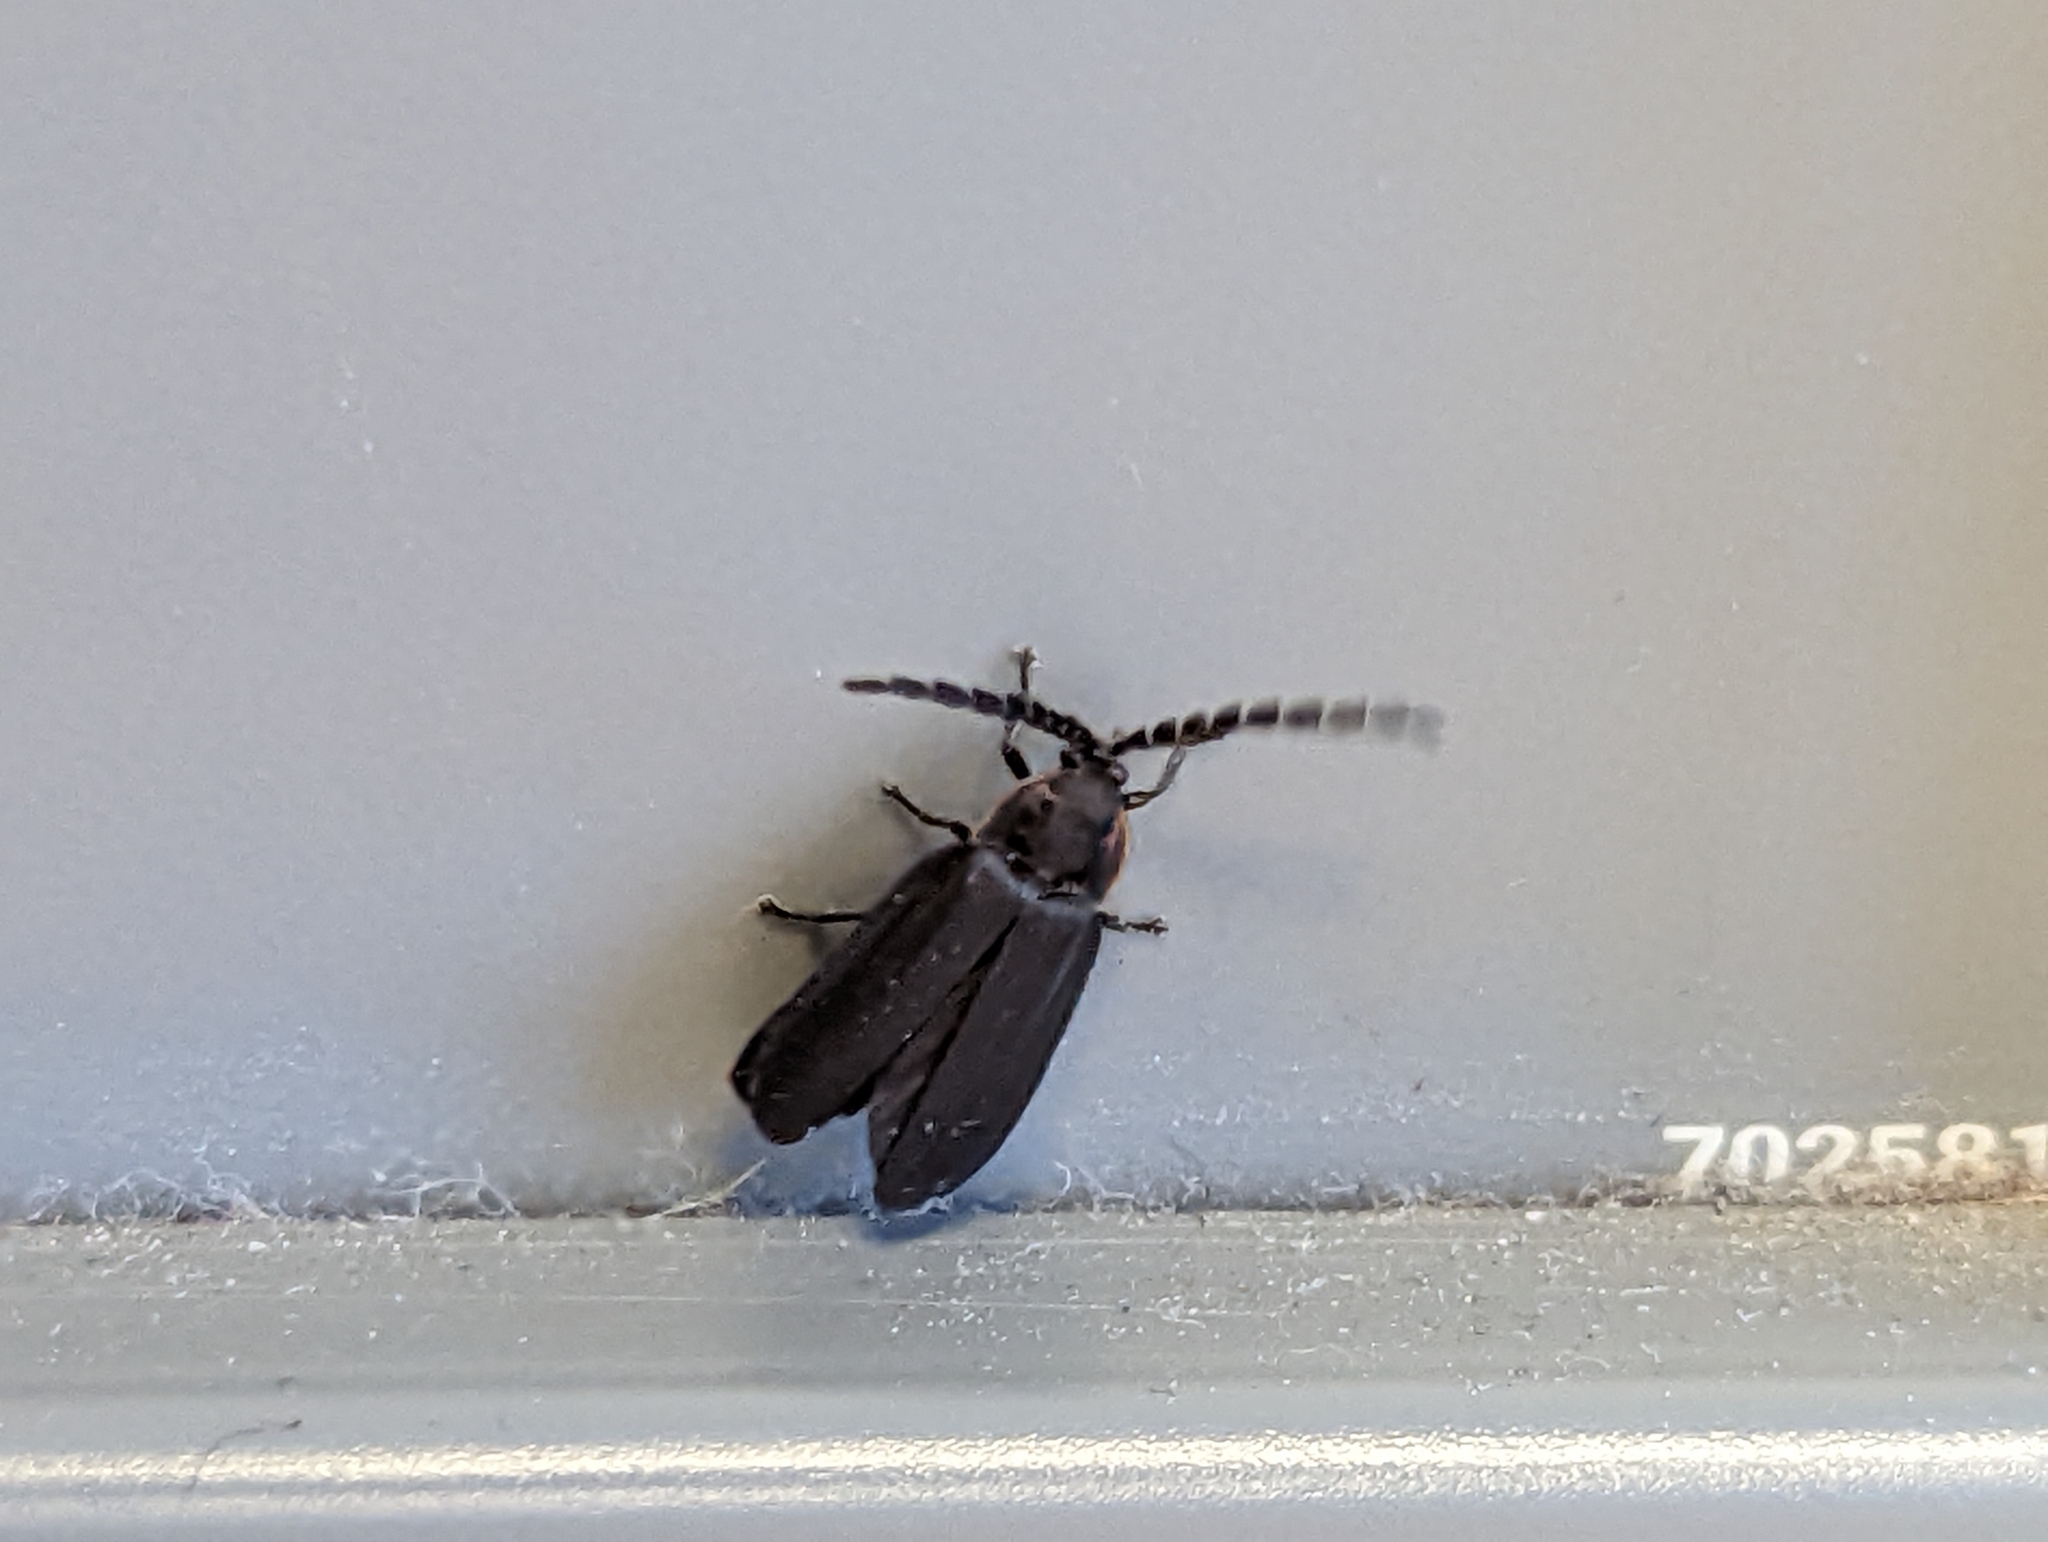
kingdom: Animalia
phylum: Arthropoda
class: Insecta
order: Coleoptera
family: Lampyridae
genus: Lucidota
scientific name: Lucidota atra
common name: Black firefly
